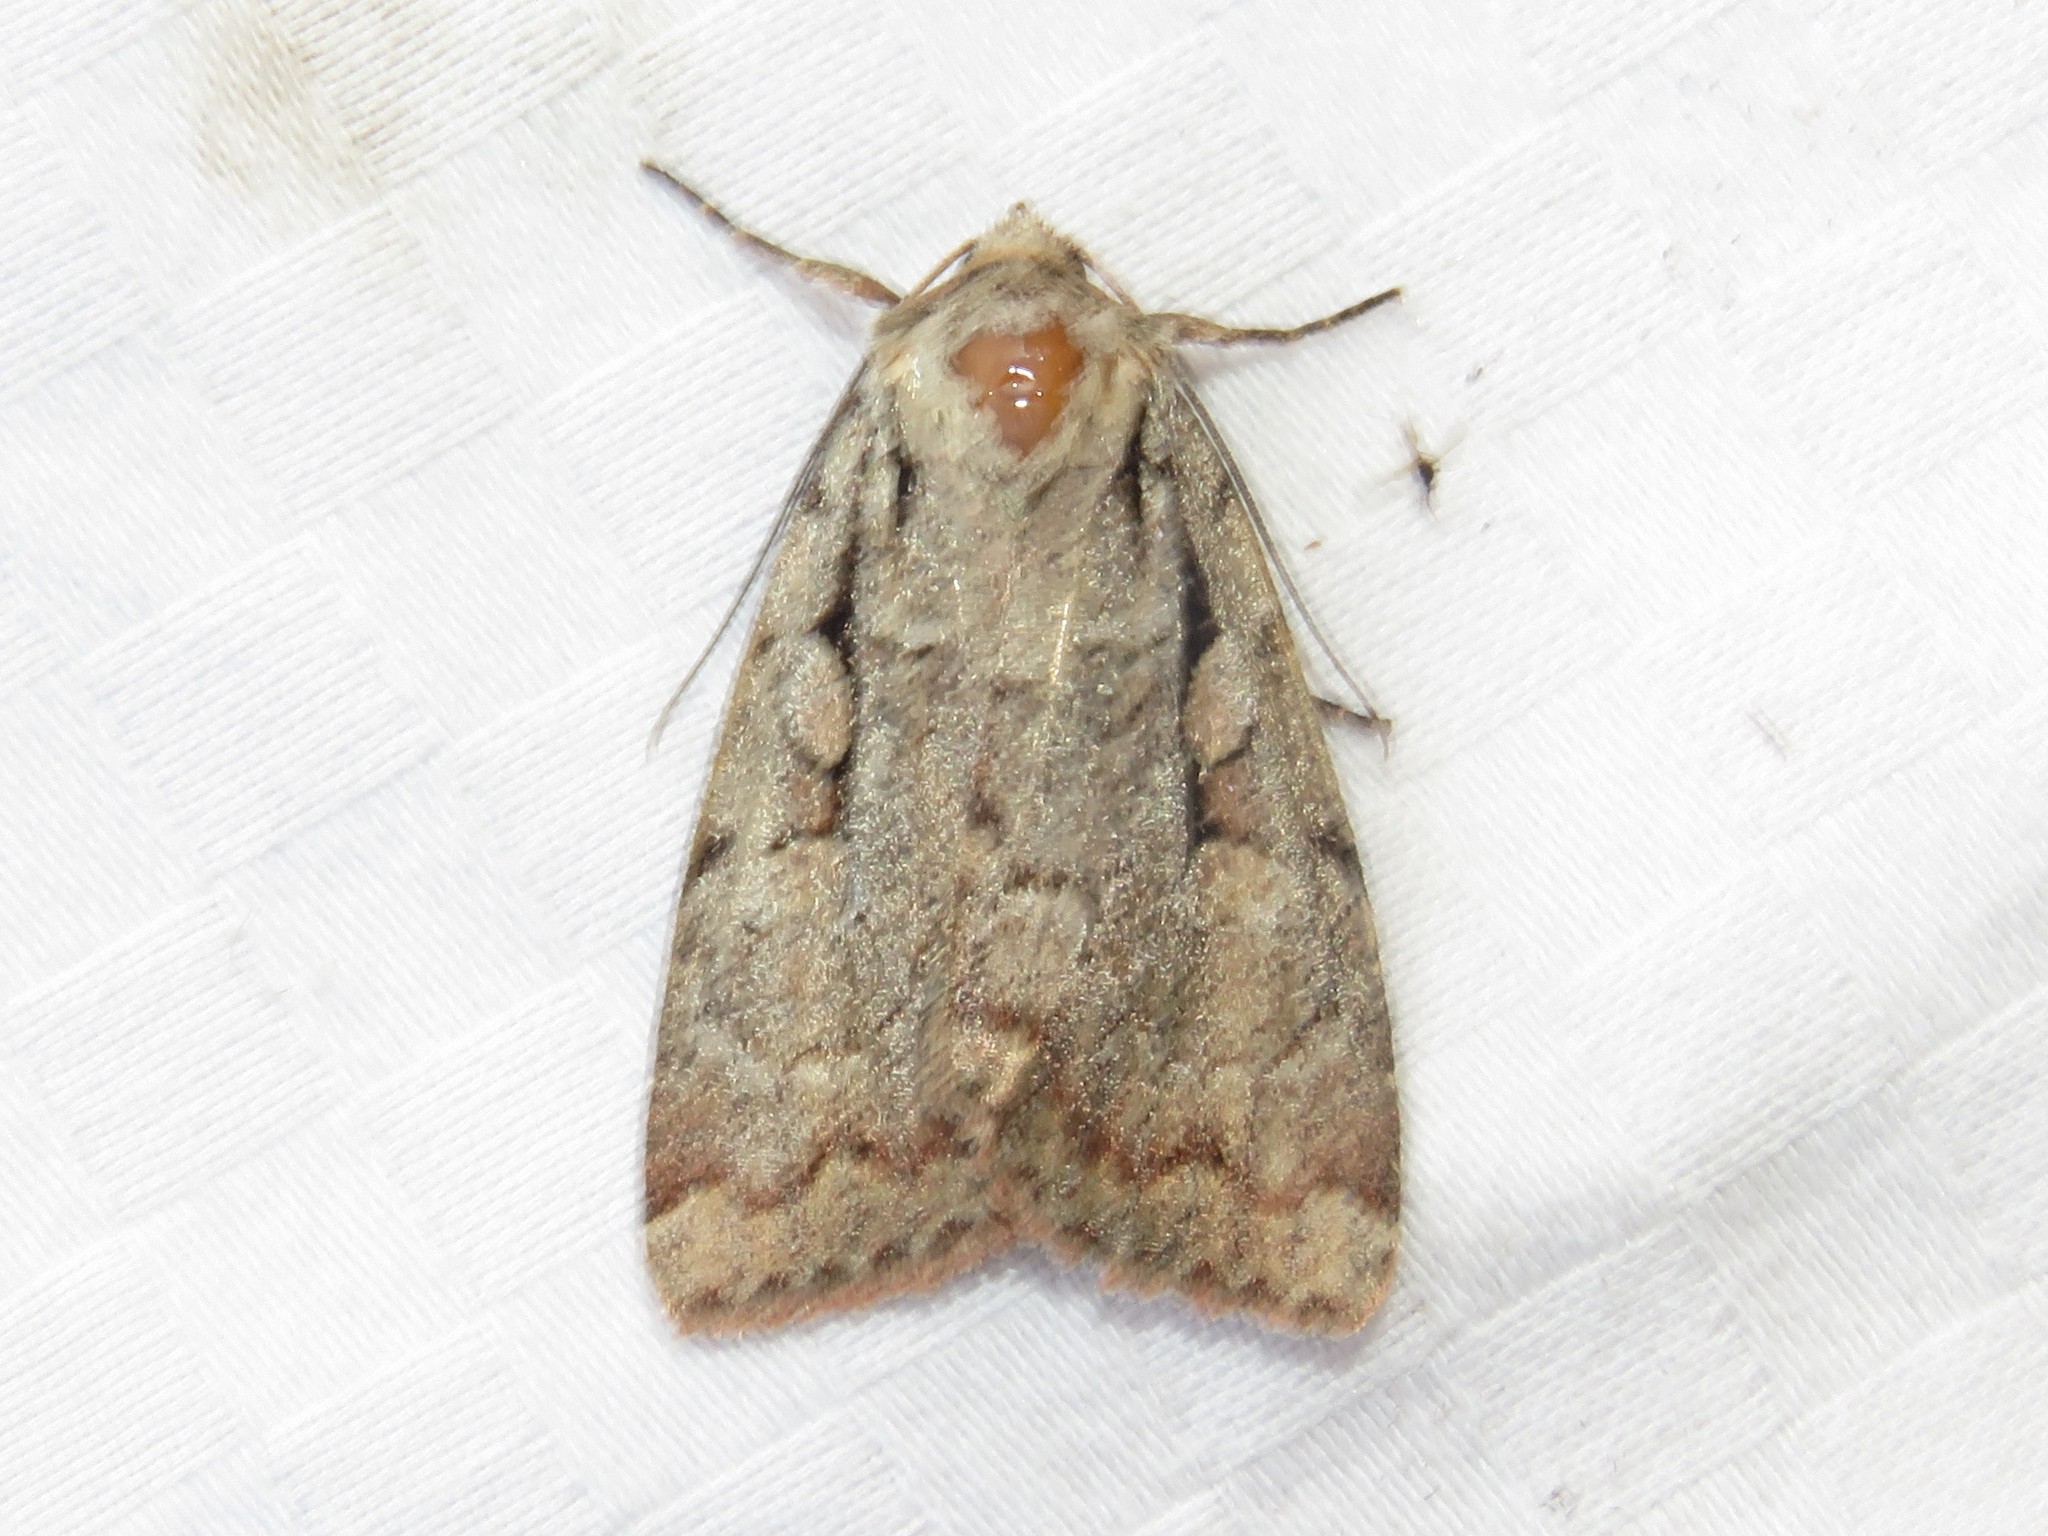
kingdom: Animalia
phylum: Arthropoda
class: Insecta
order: Lepidoptera
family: Noctuidae
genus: Xestia
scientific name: Xestia badicollis
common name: Northern variable dart
